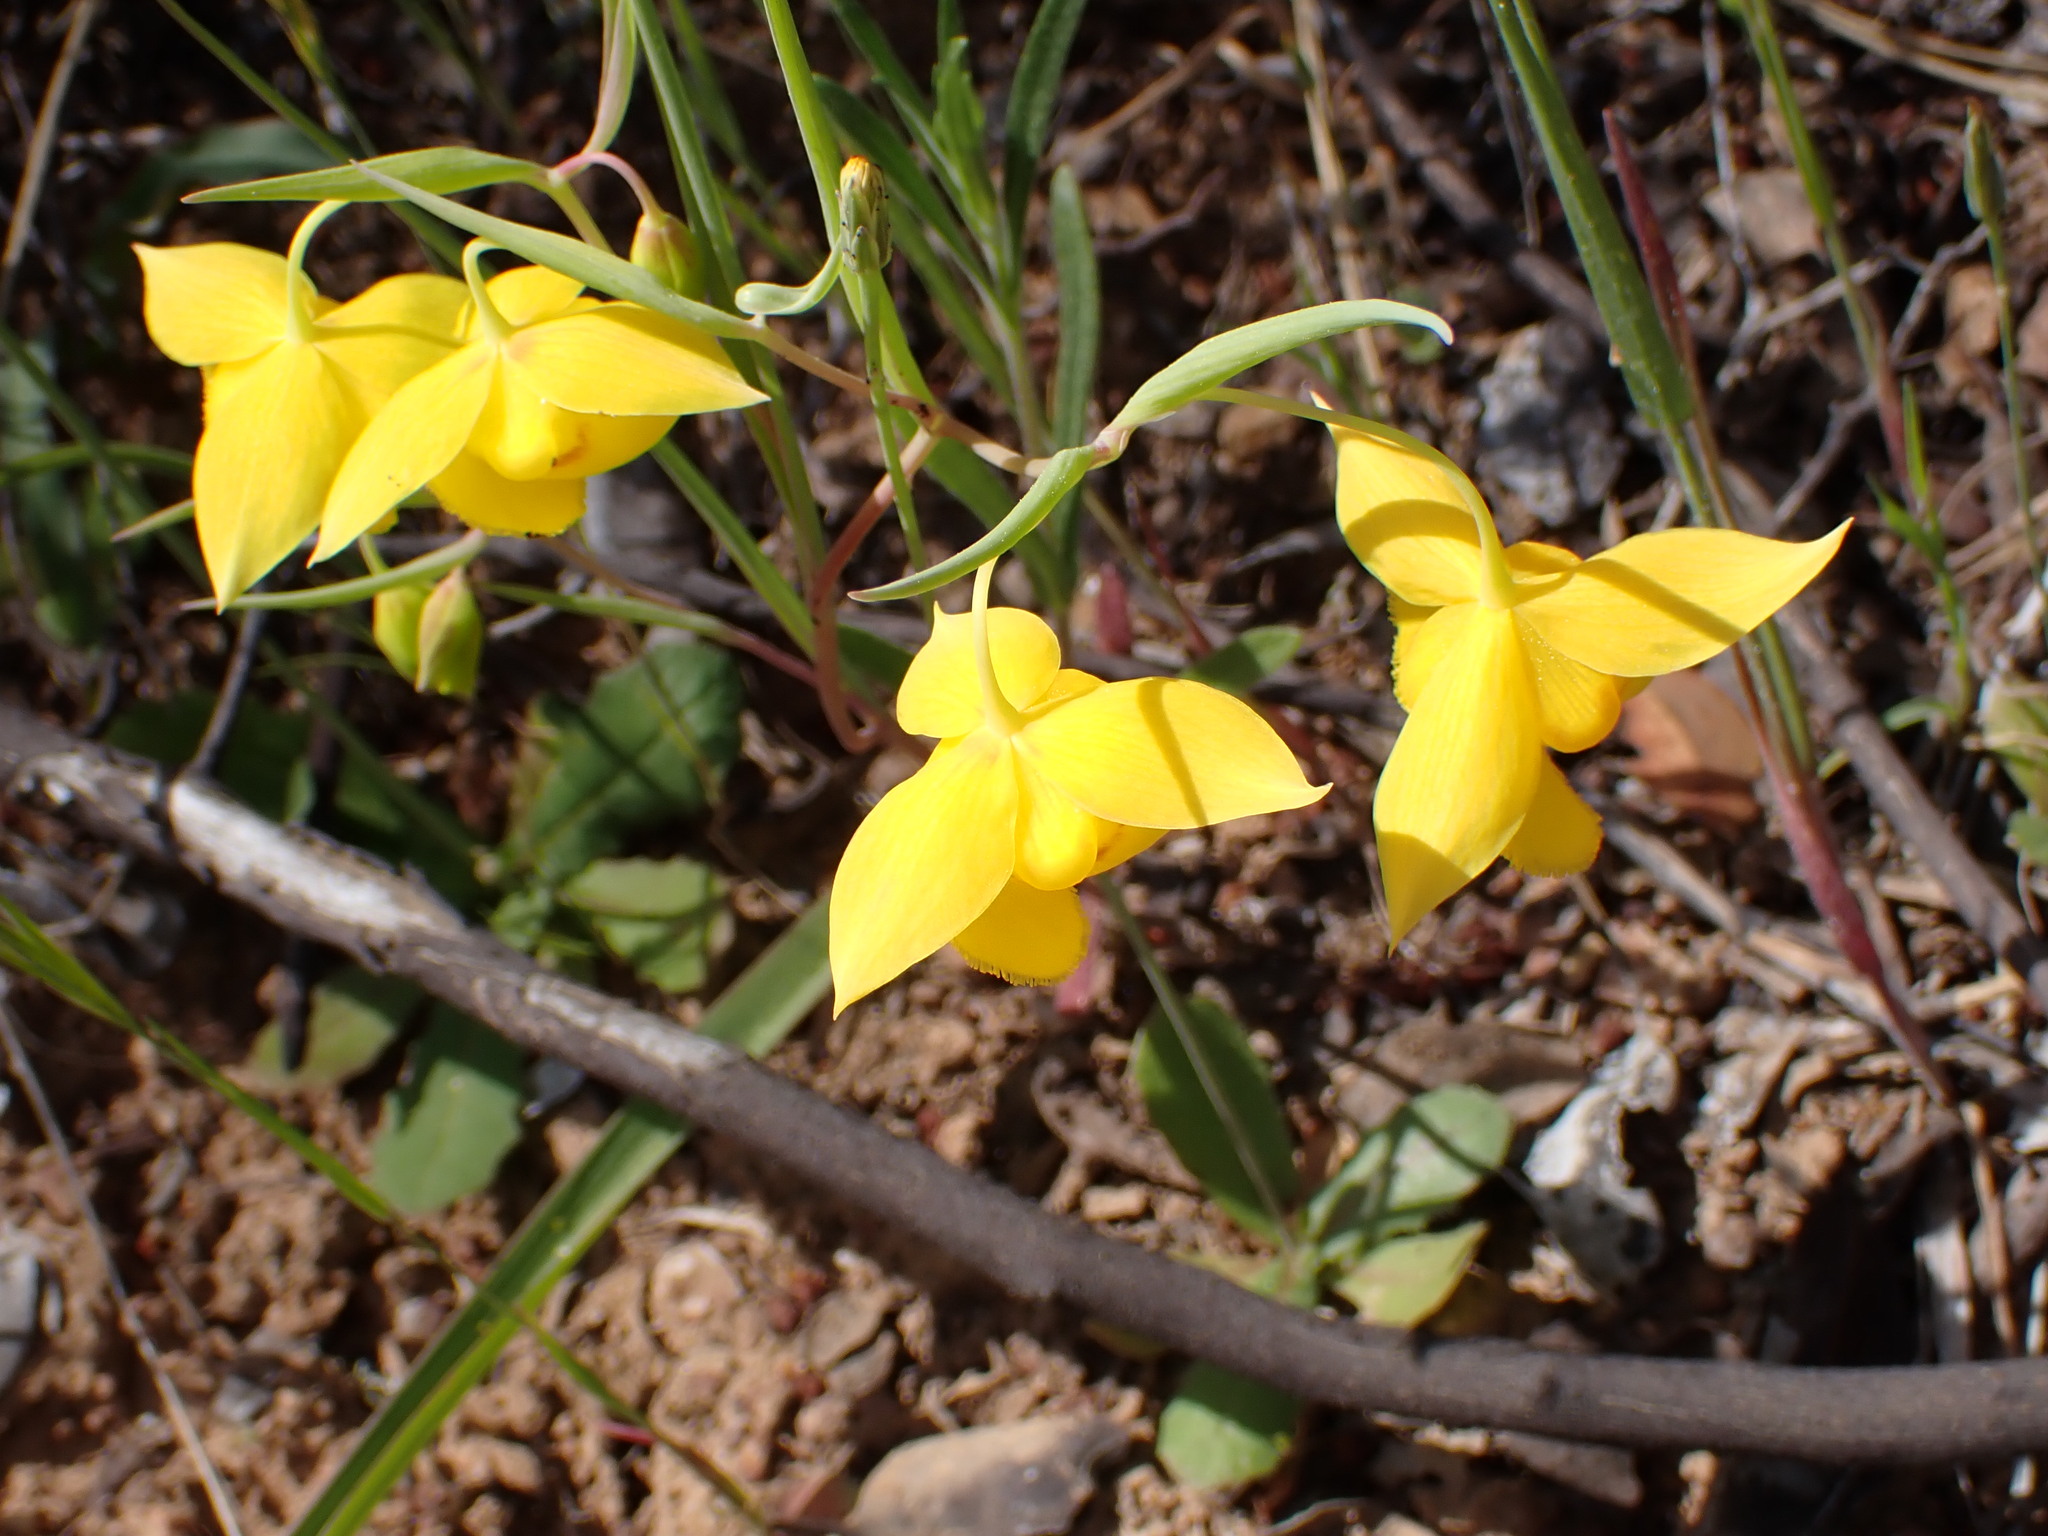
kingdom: Plantae
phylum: Tracheophyta
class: Liliopsida
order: Liliales
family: Liliaceae
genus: Calochortus
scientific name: Calochortus amabilis
